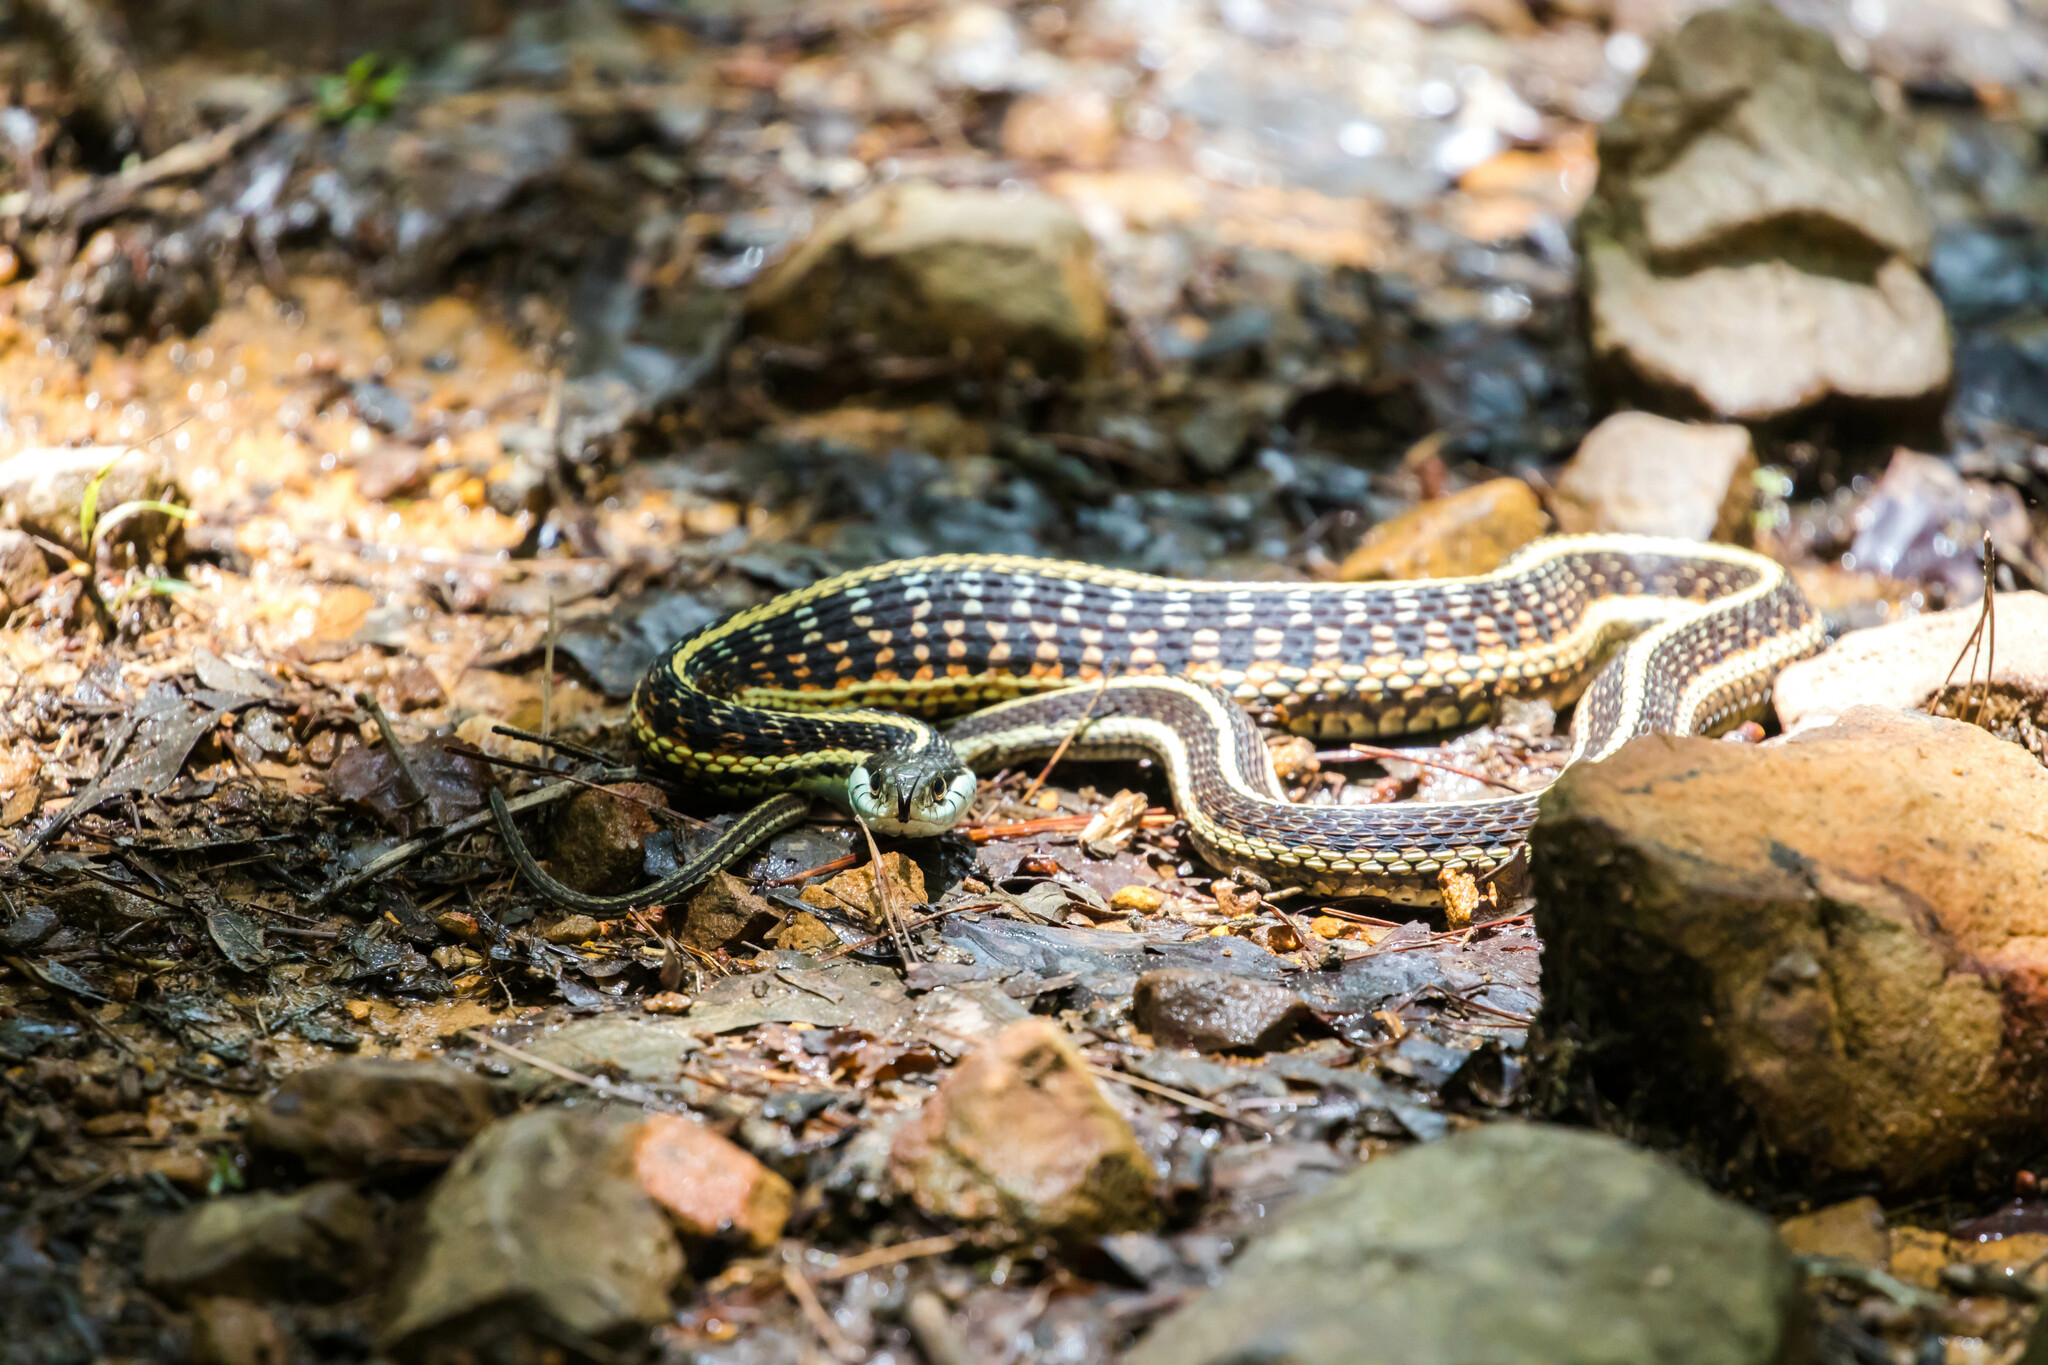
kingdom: Animalia
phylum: Chordata
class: Squamata
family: Colubridae
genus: Thamnophis
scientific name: Thamnophis sirtalis
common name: Common garter snake
